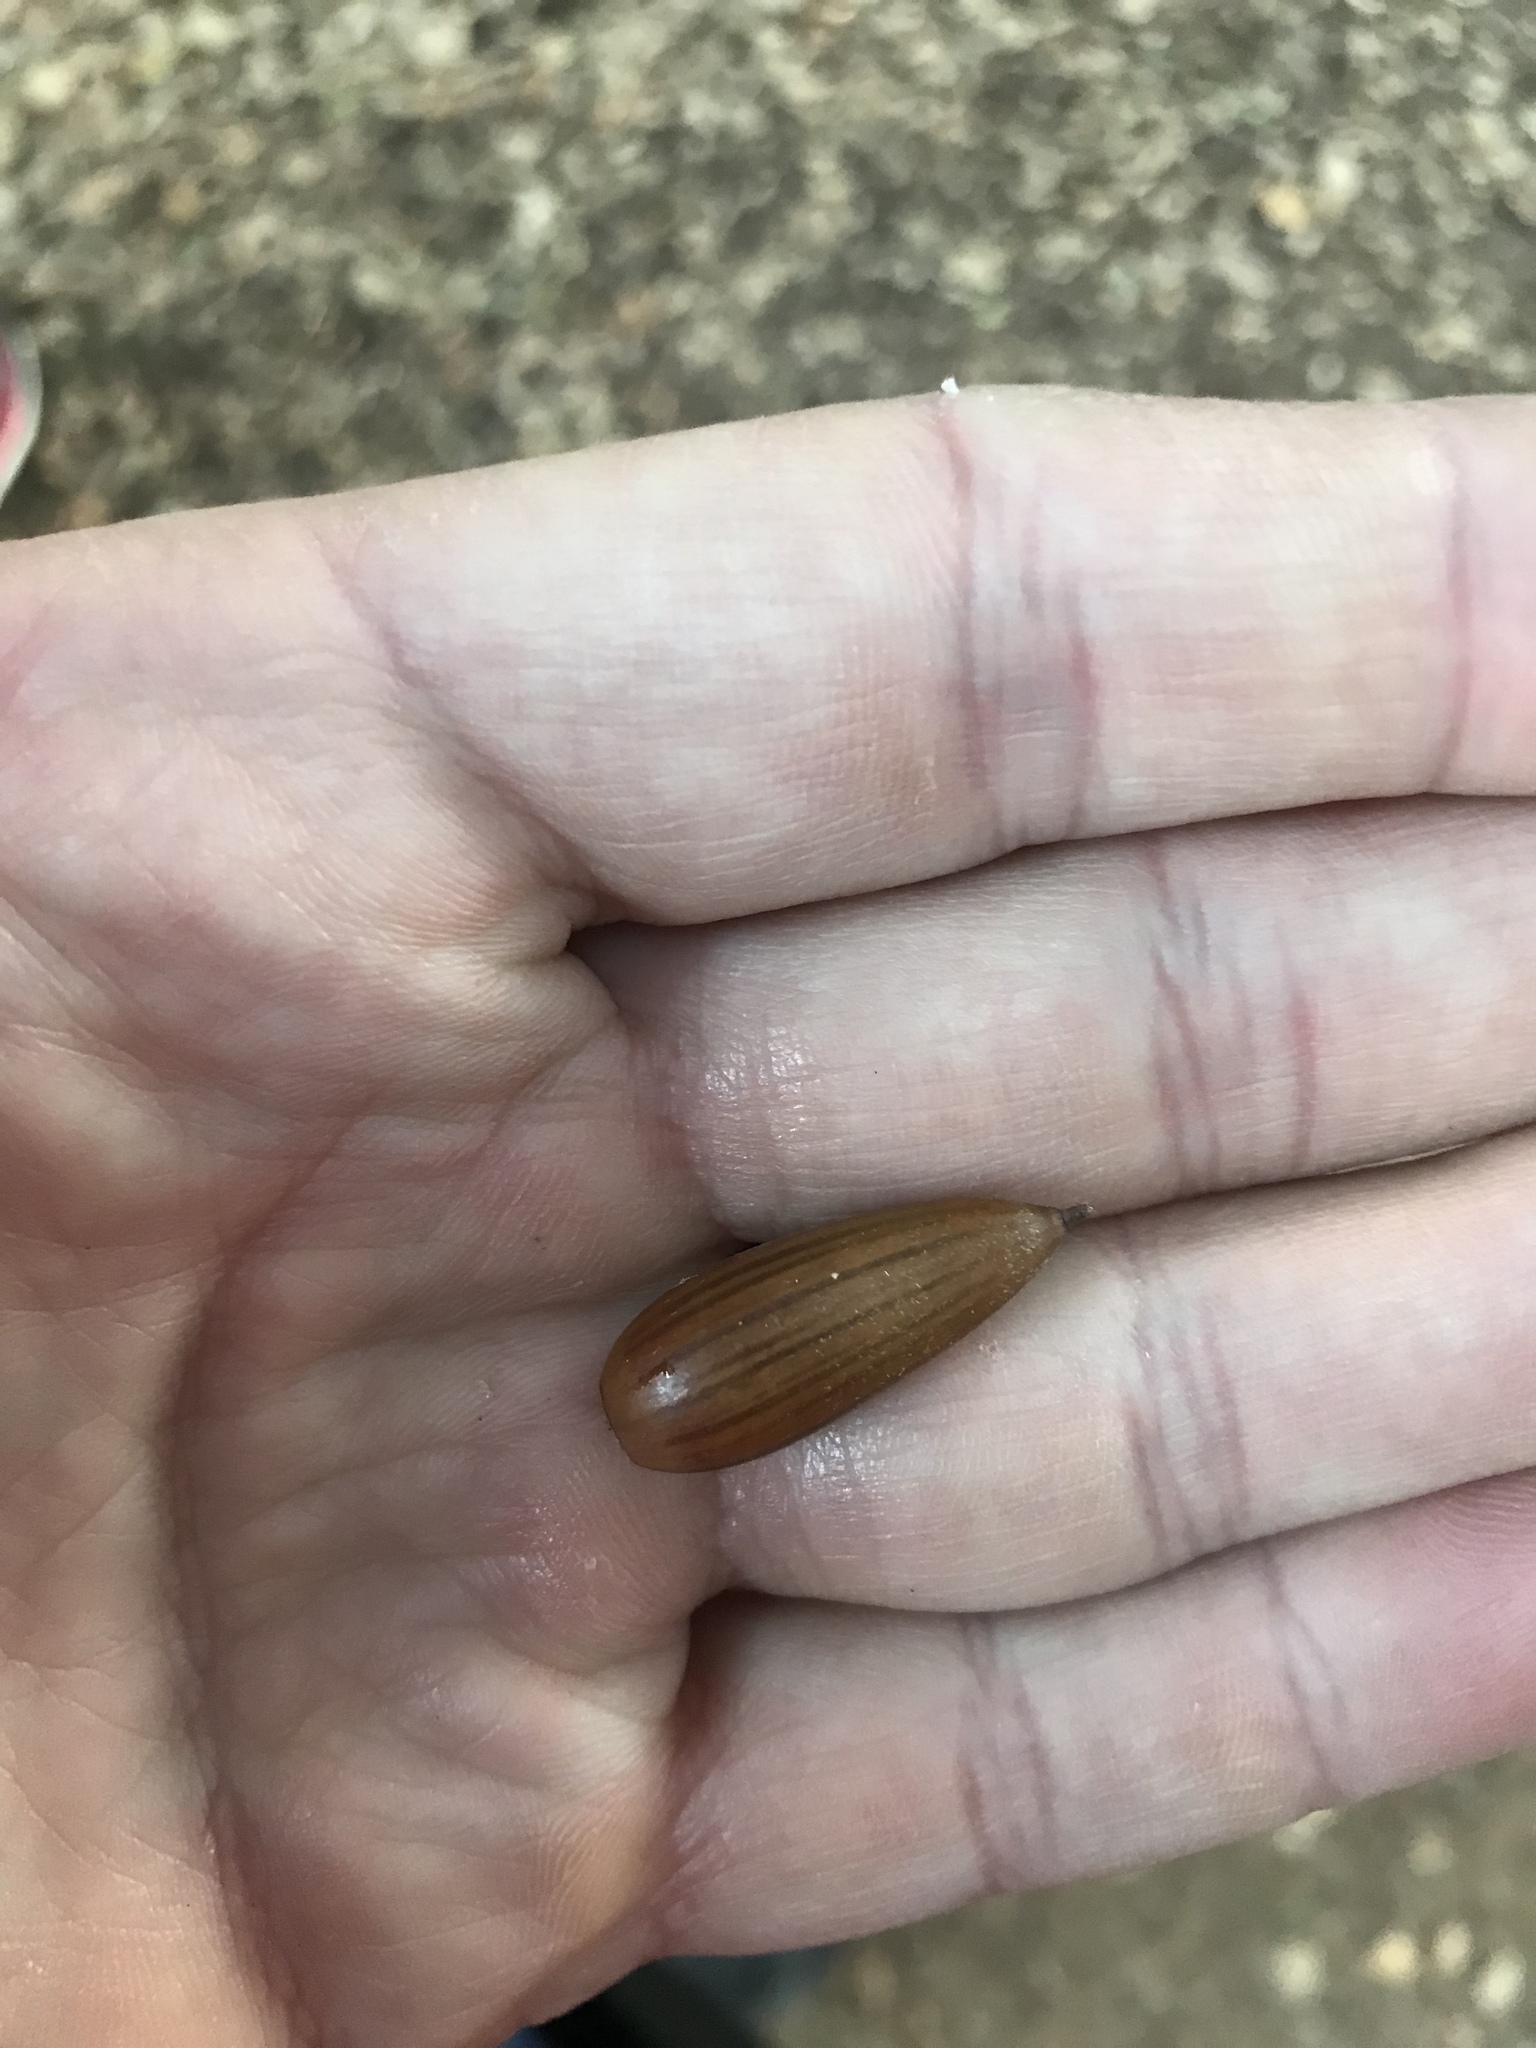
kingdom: Plantae
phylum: Tracheophyta
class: Magnoliopsida
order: Fagales
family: Fagaceae
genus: Quercus
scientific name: Quercus agrifolia
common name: California live oak
